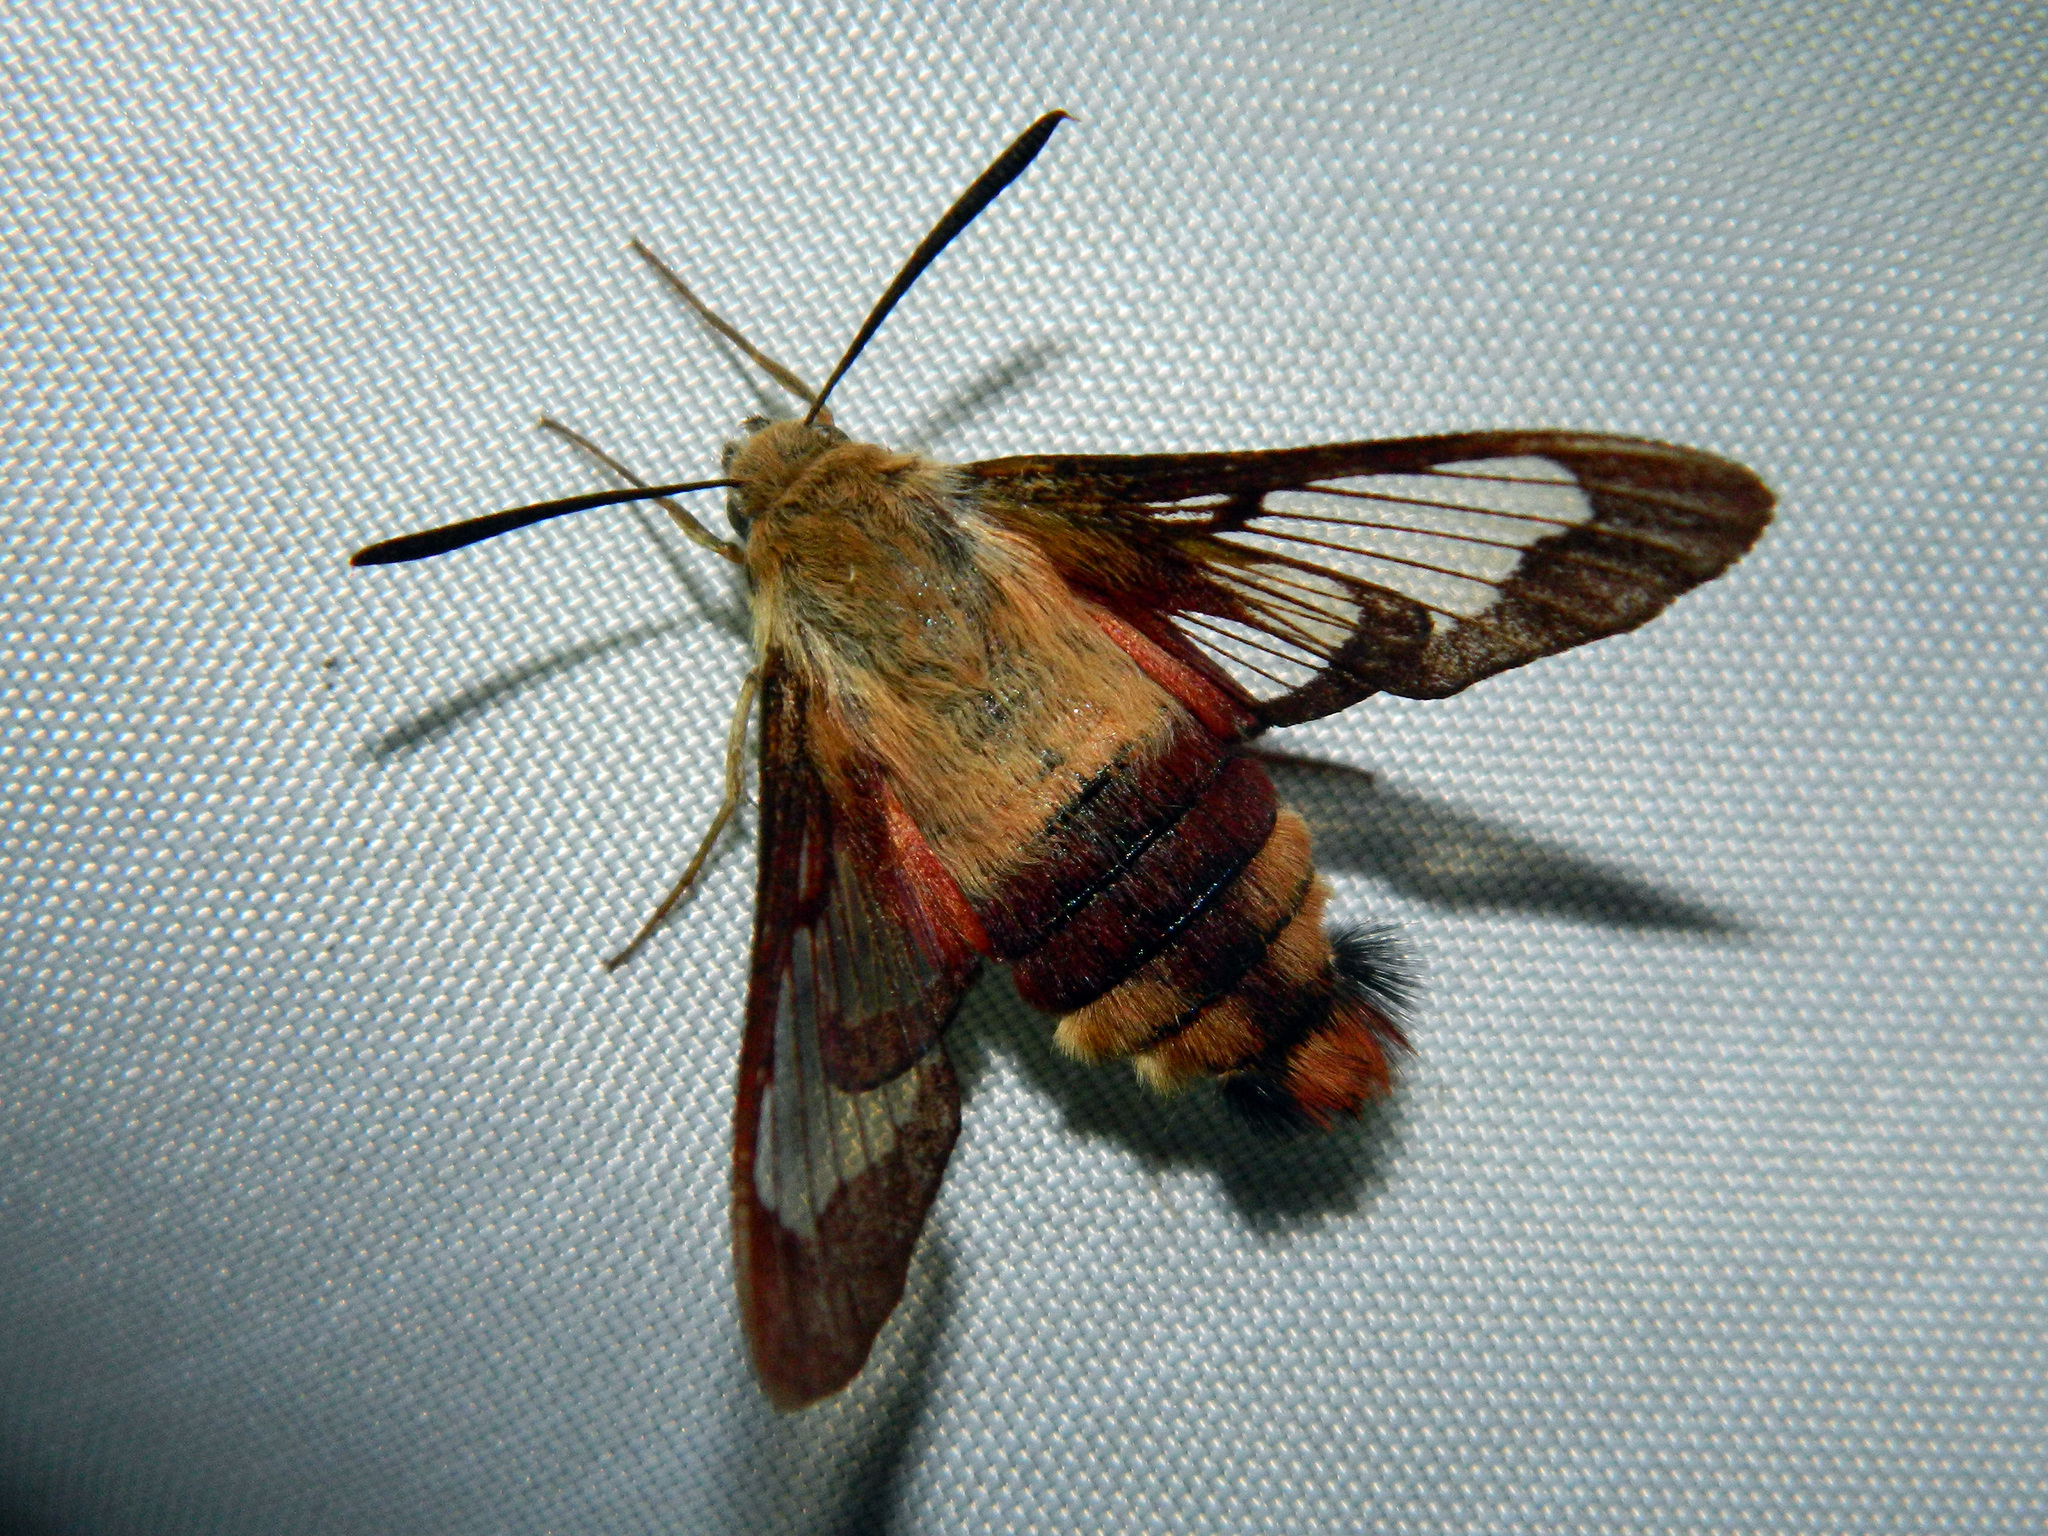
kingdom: Animalia
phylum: Arthropoda
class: Insecta
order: Lepidoptera
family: Sphingidae
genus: Hemaris
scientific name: Hemaris thysbe
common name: Common clear-wing
